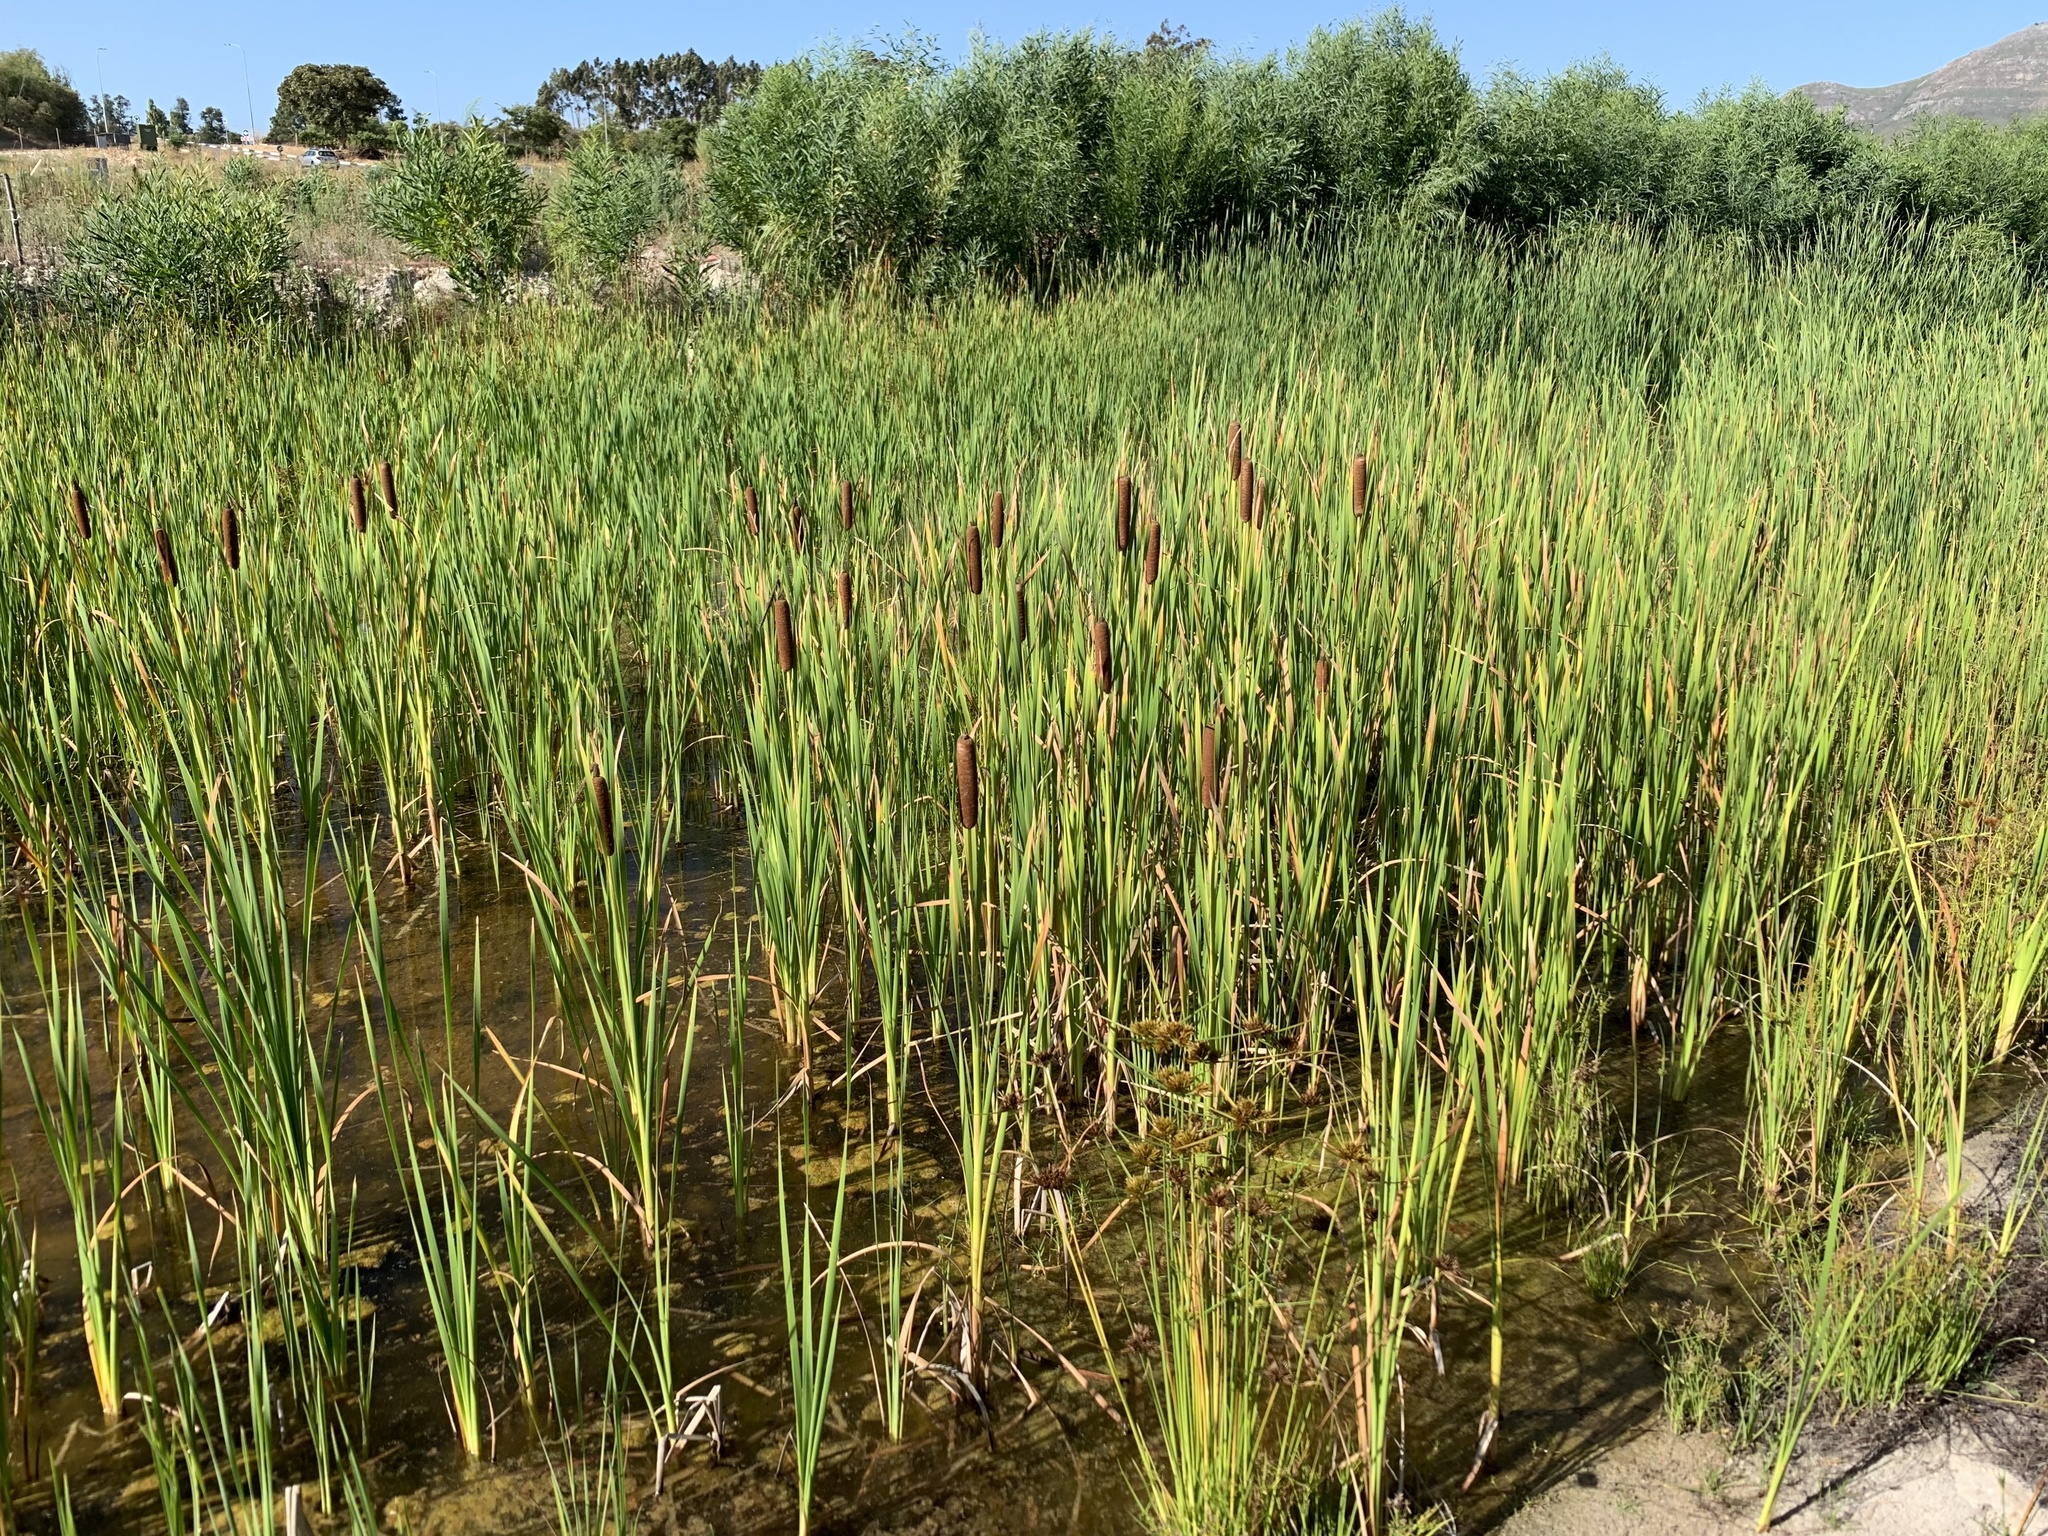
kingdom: Plantae
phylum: Tracheophyta
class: Liliopsida
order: Poales
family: Typhaceae
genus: Typha
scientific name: Typha capensis
